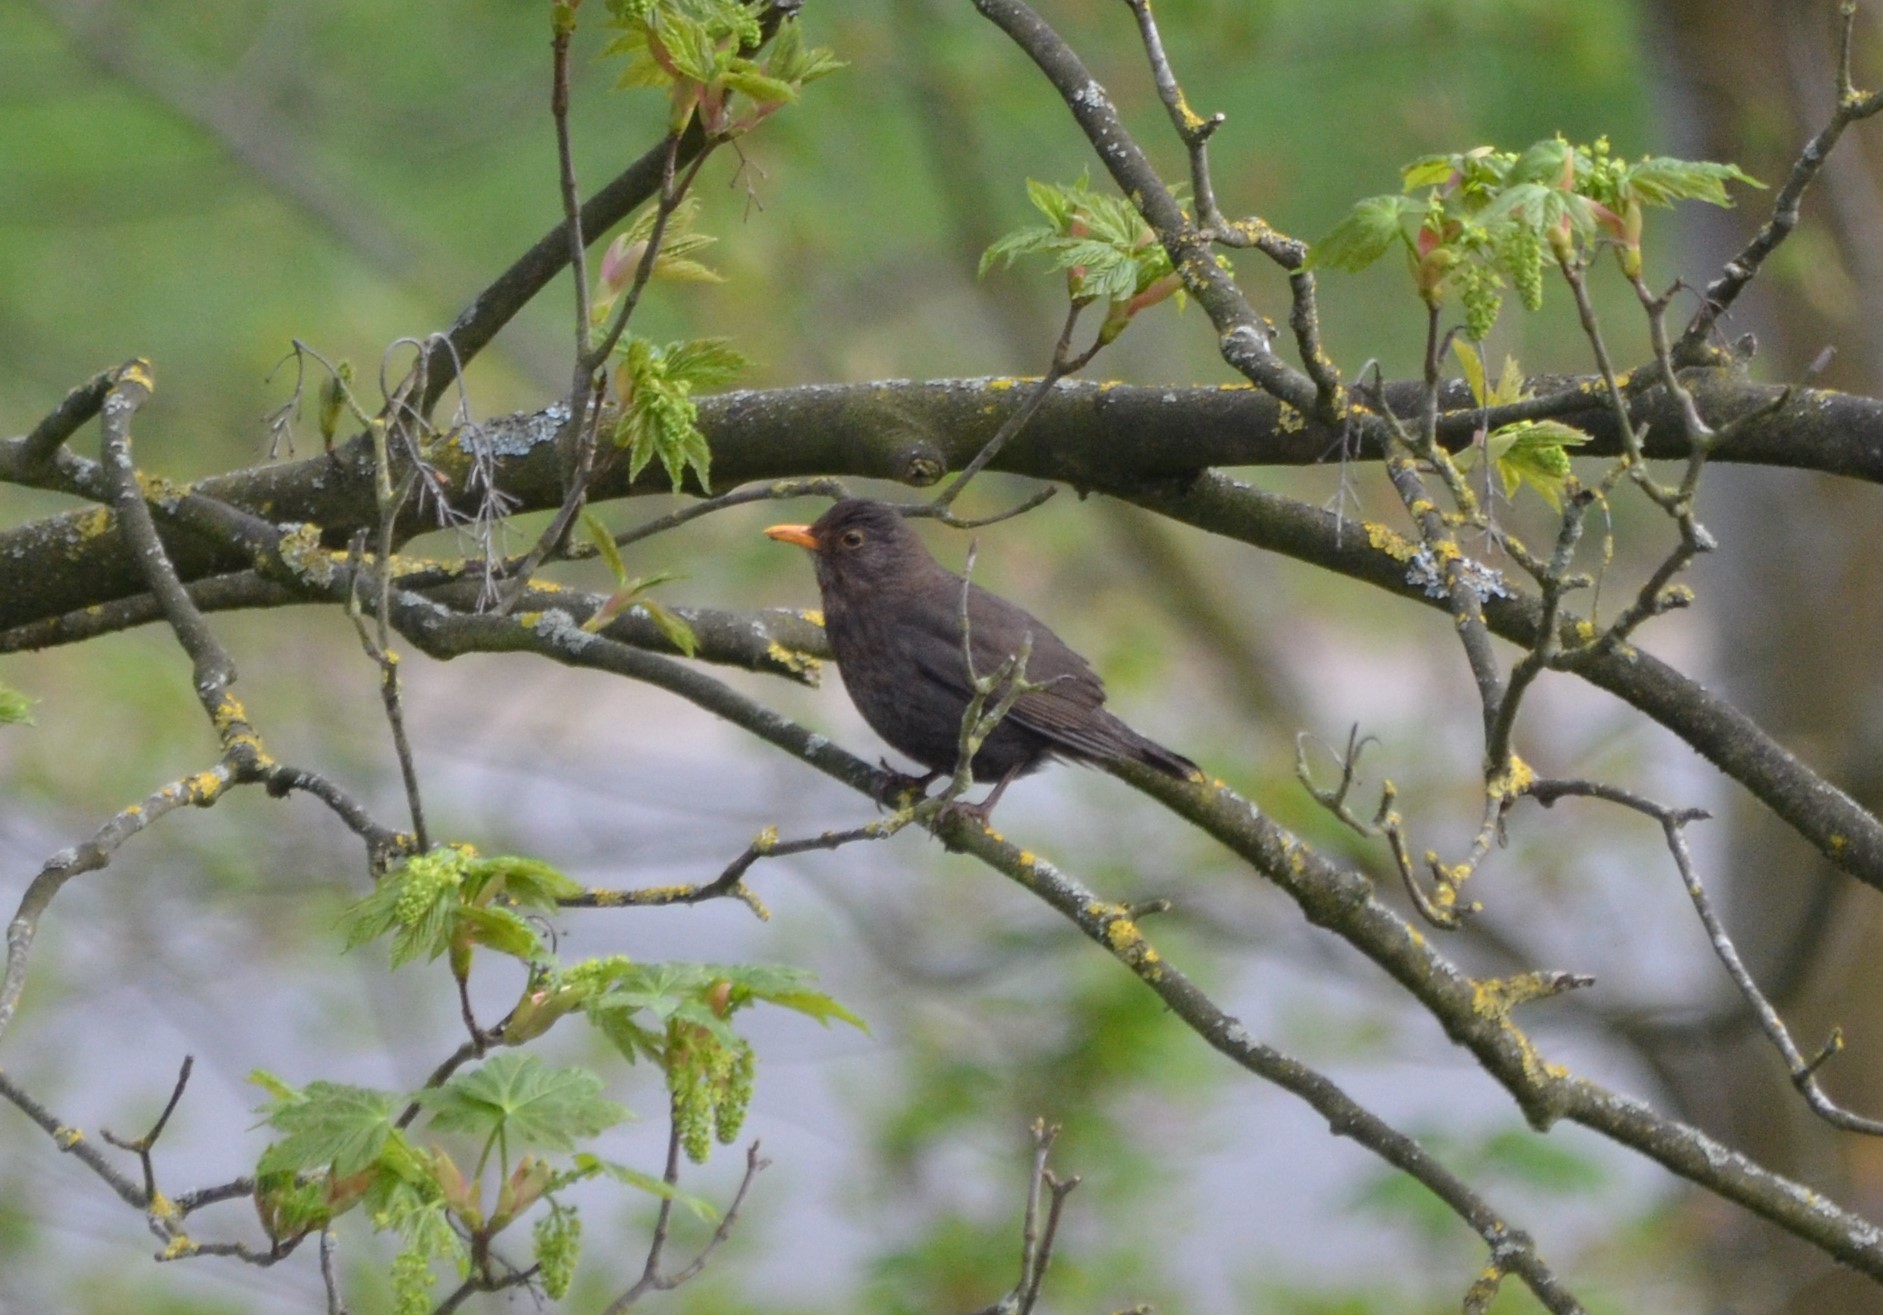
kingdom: Animalia
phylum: Chordata
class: Aves
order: Passeriformes
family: Turdidae
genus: Turdus
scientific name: Turdus merula
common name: Common blackbird
